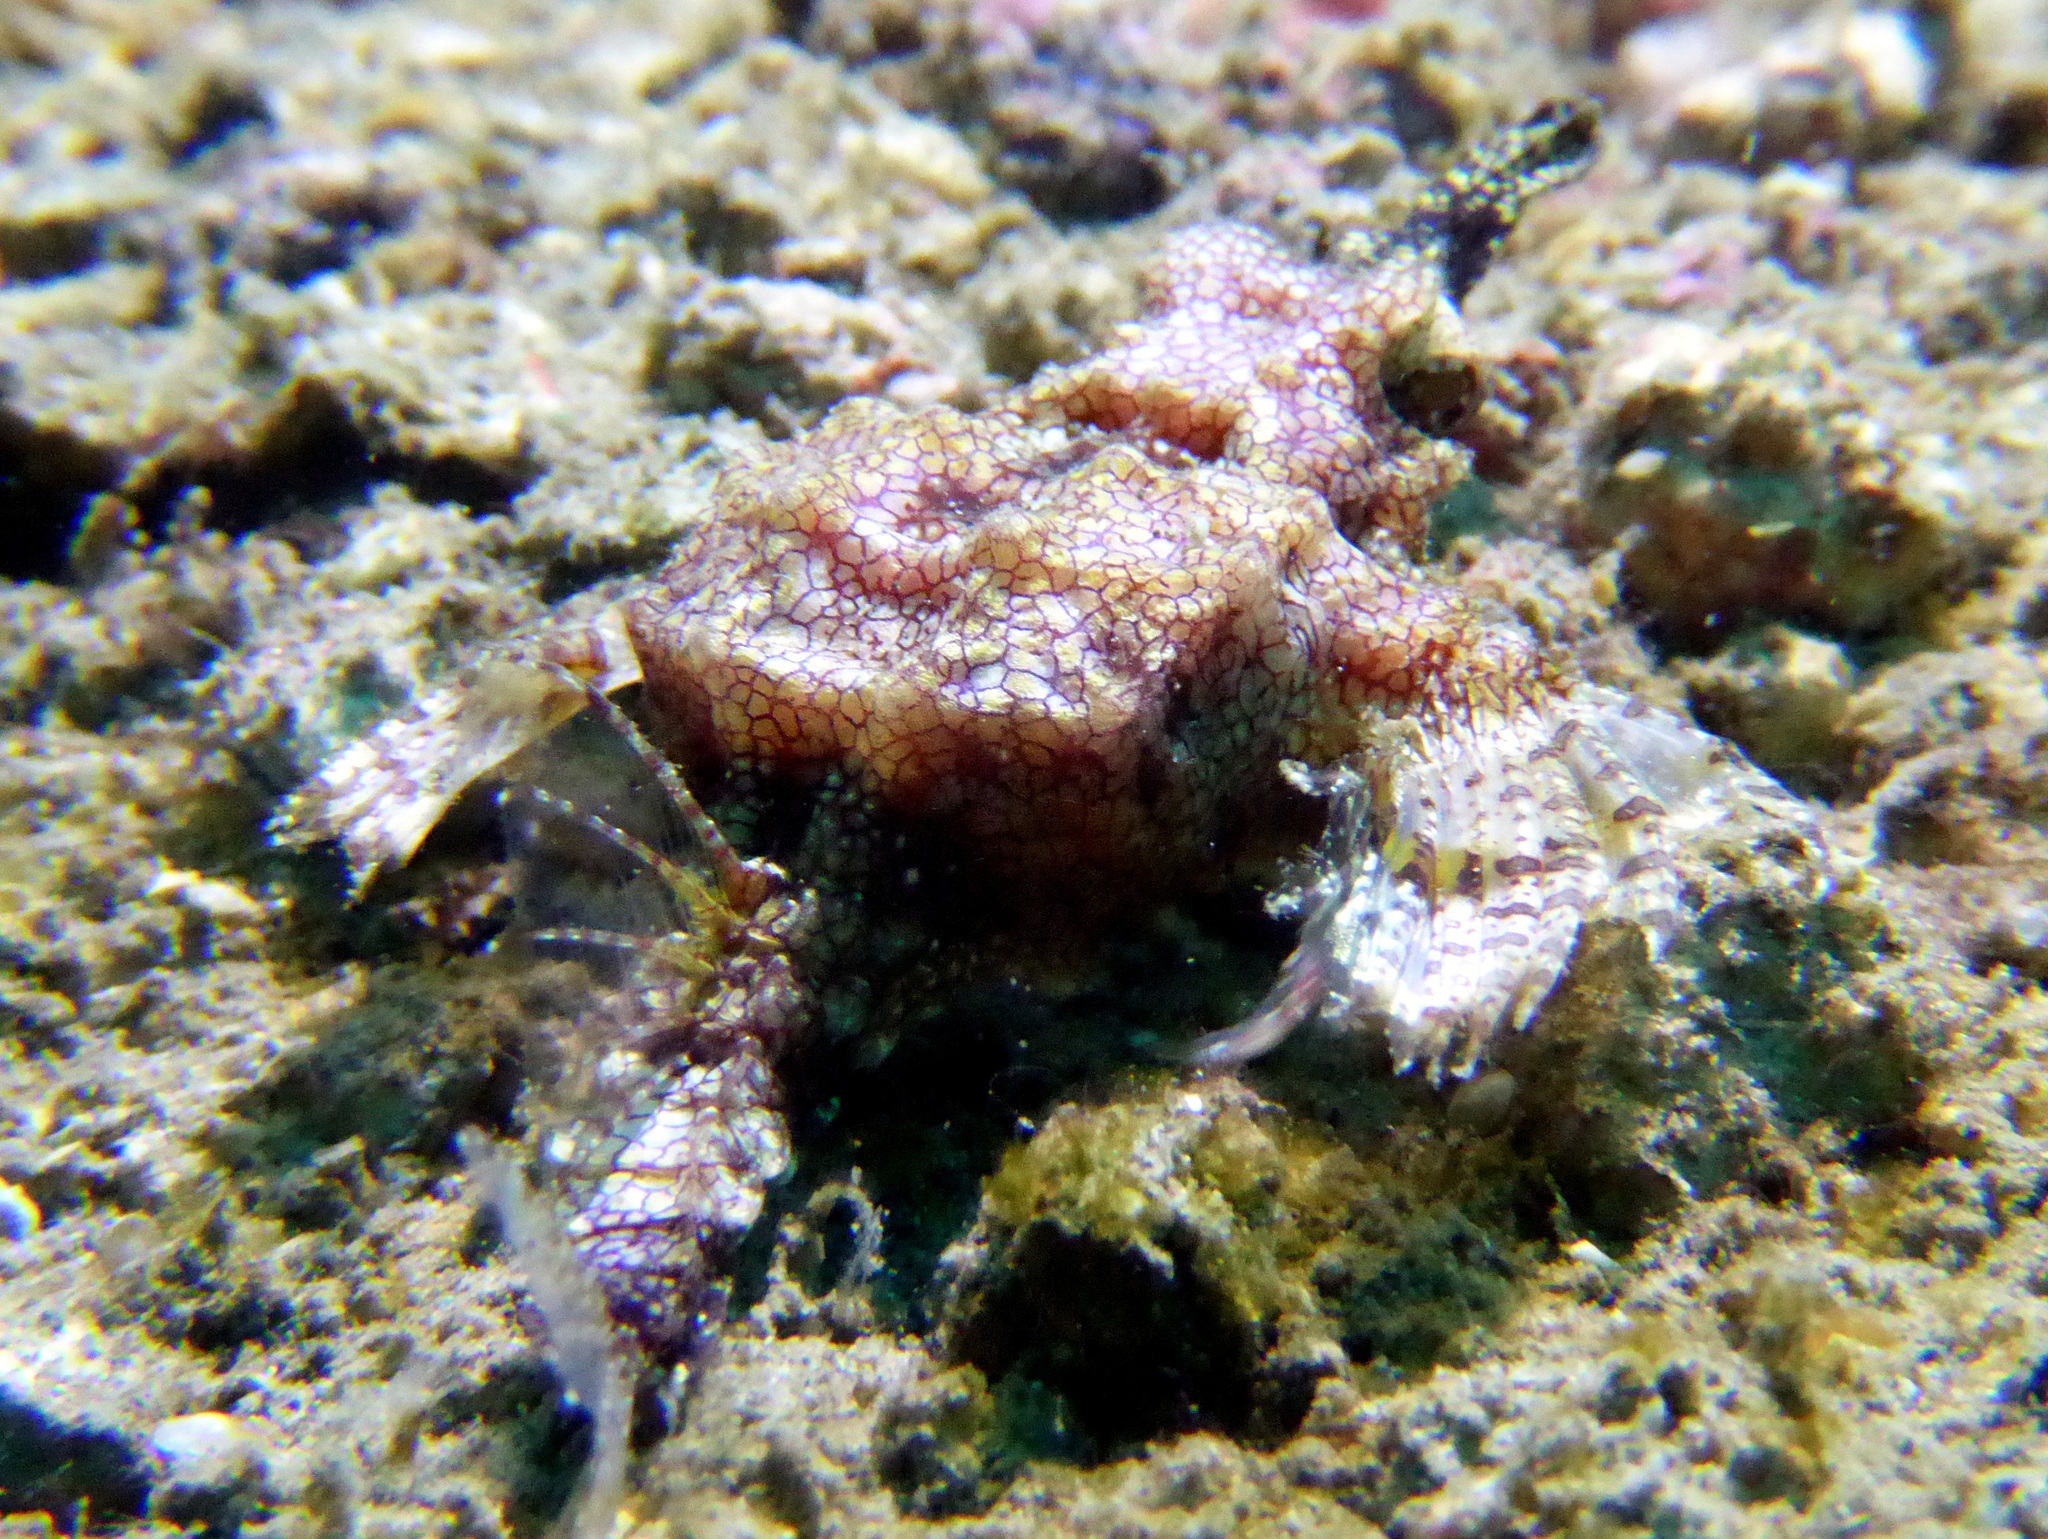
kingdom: Animalia
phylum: Chordata
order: Gasterosteiformes
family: Pegasidae
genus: Eurypegasus
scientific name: Eurypegasus draconis
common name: Short dragonfish
